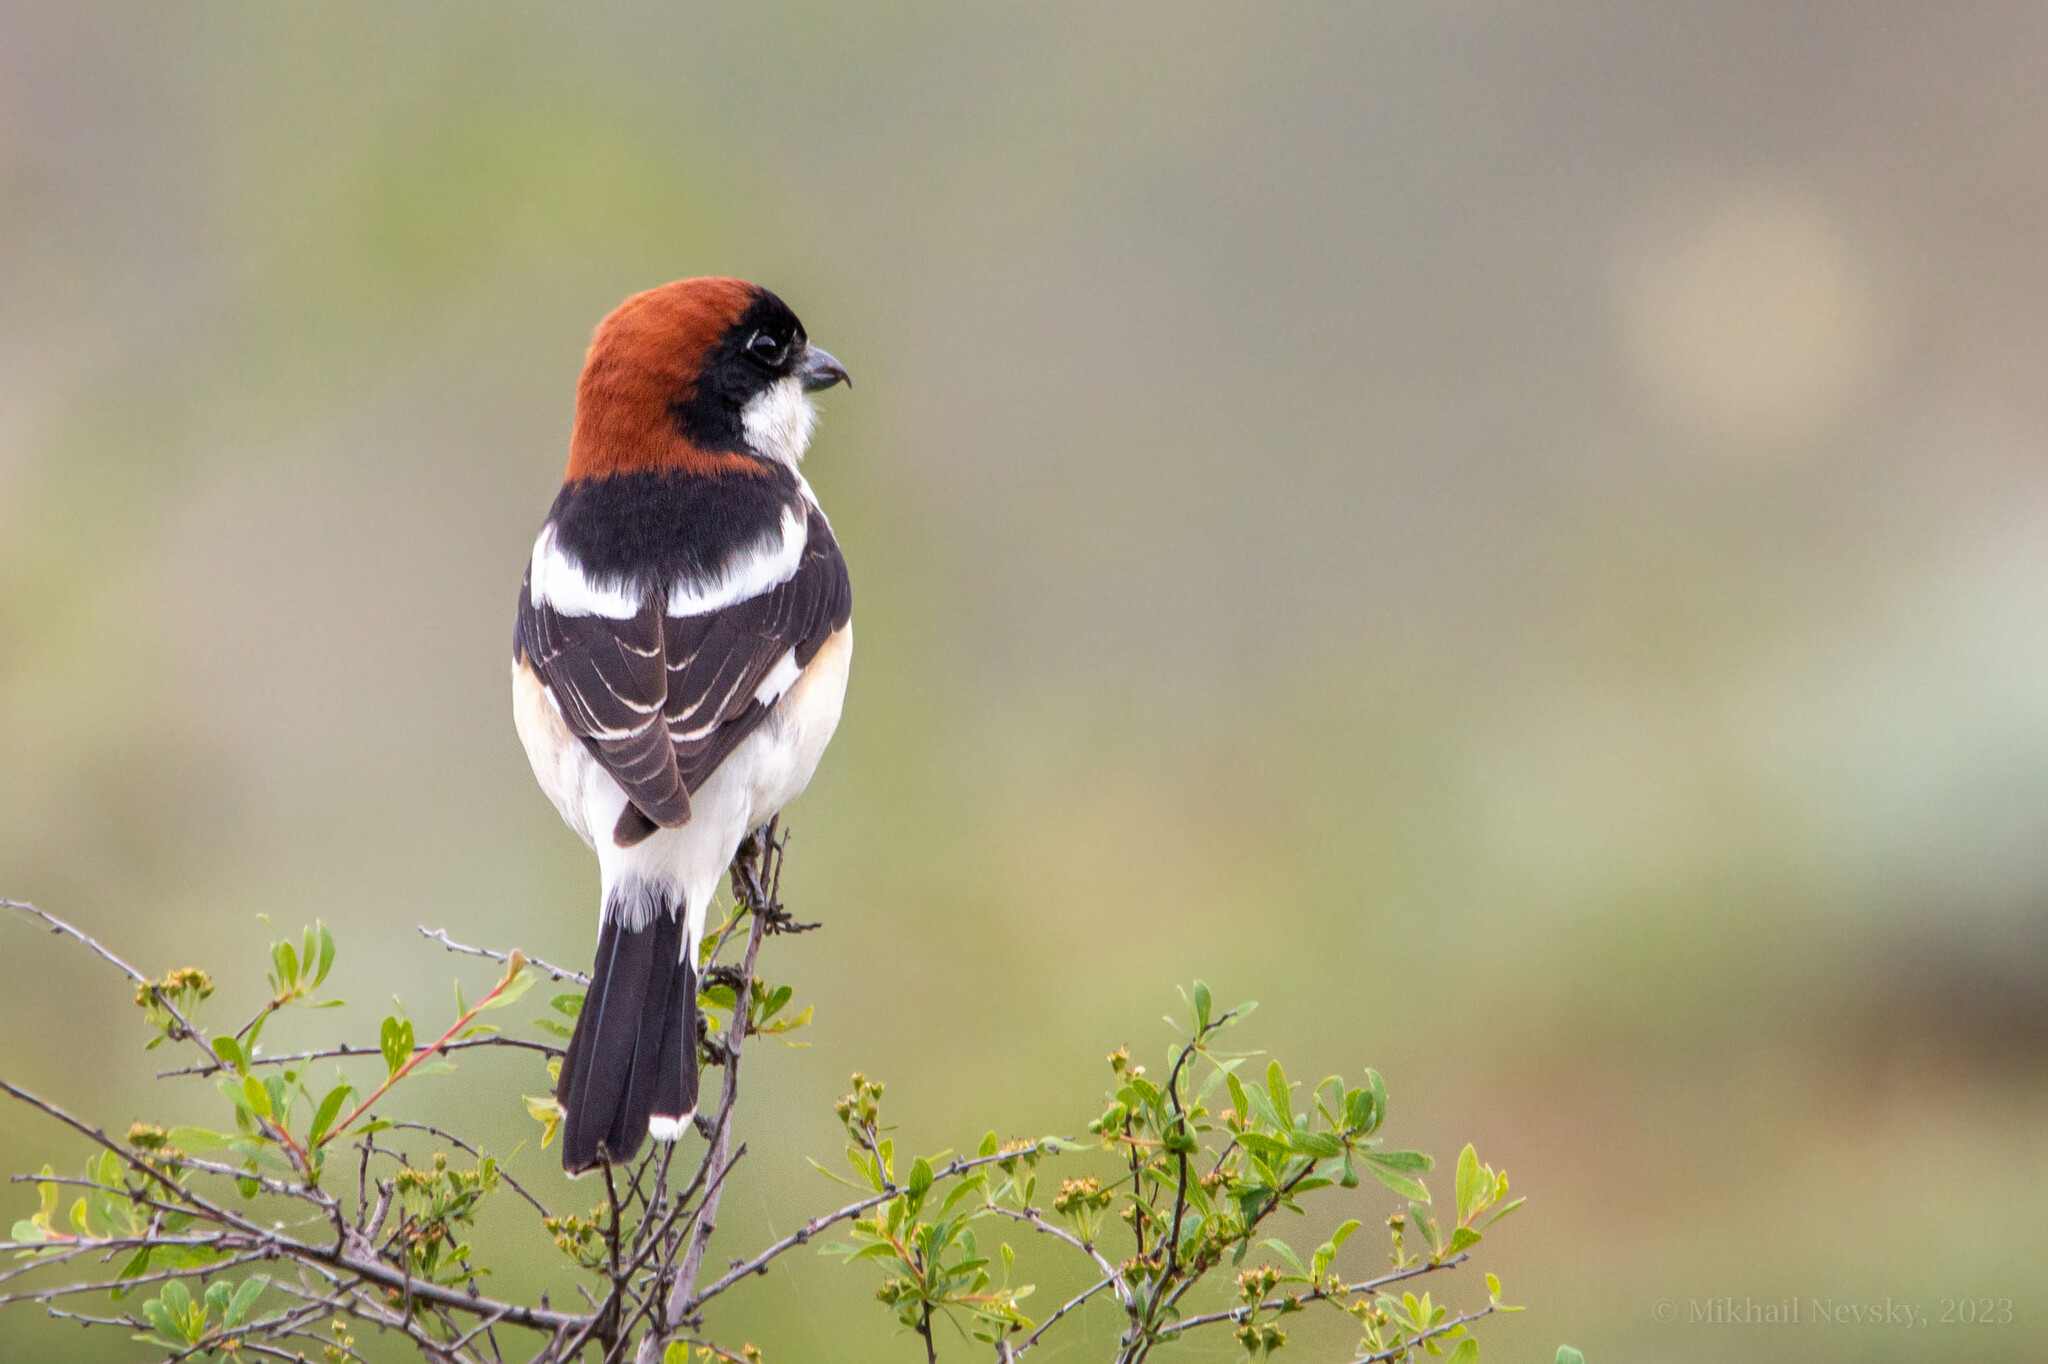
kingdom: Animalia
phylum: Chordata
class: Aves
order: Passeriformes
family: Laniidae
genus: Lanius
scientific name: Lanius senator
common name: Woodchat shrike
